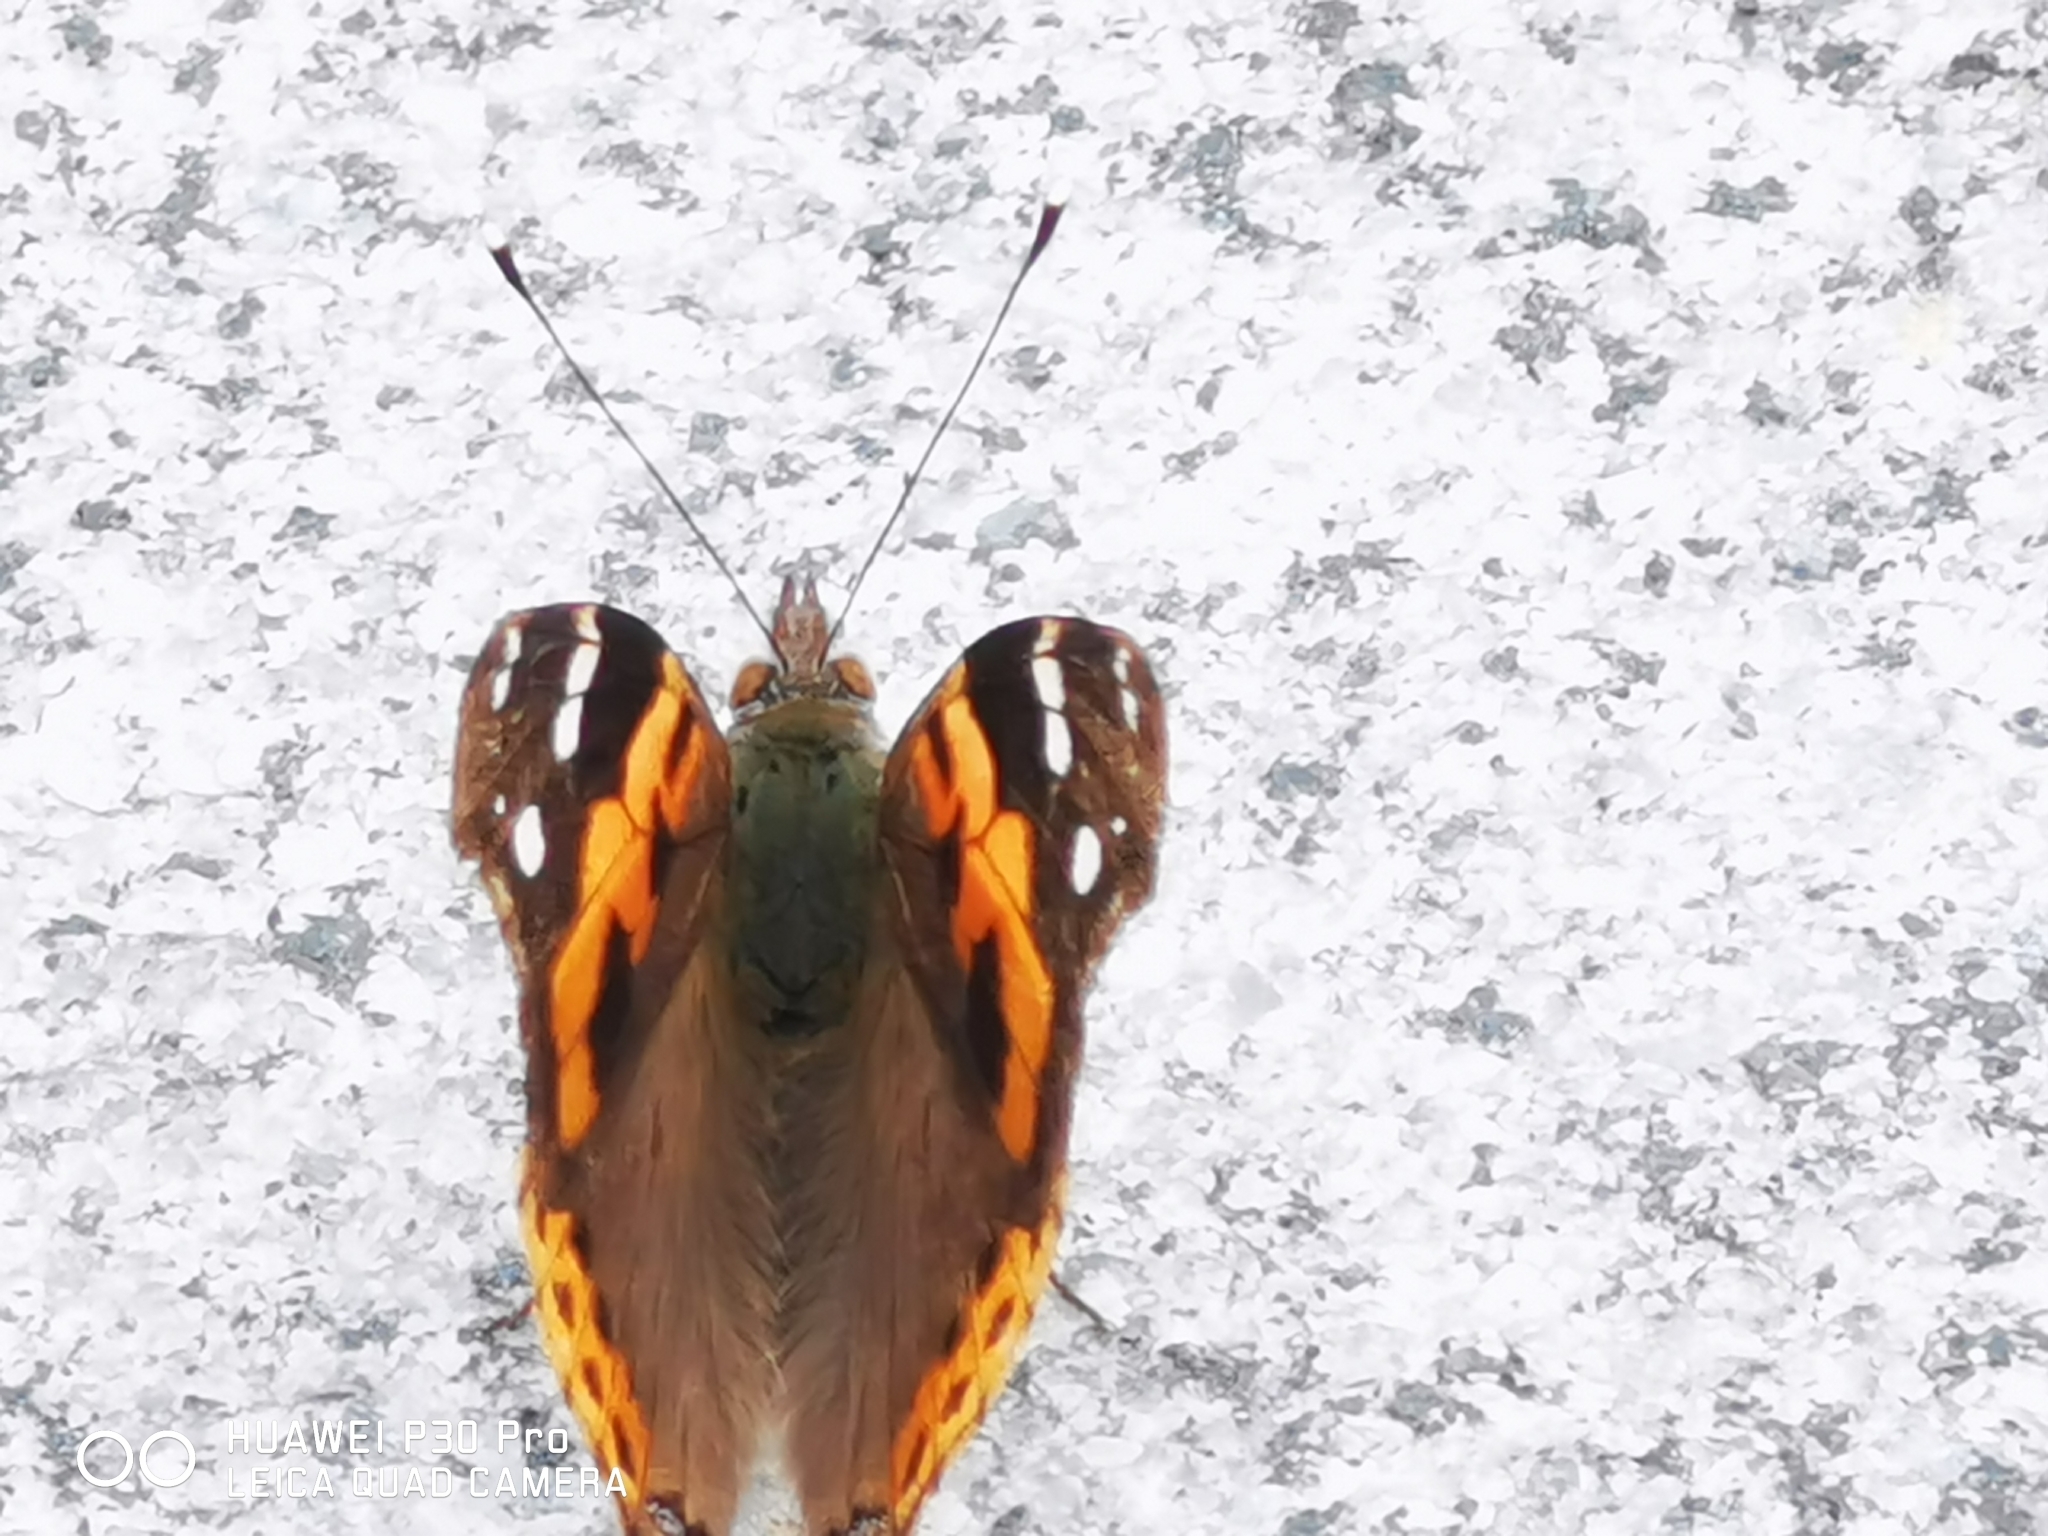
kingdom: Animalia
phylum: Arthropoda
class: Insecta
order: Lepidoptera
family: Nymphalidae
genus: Vanessa
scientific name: Vanessa indica
